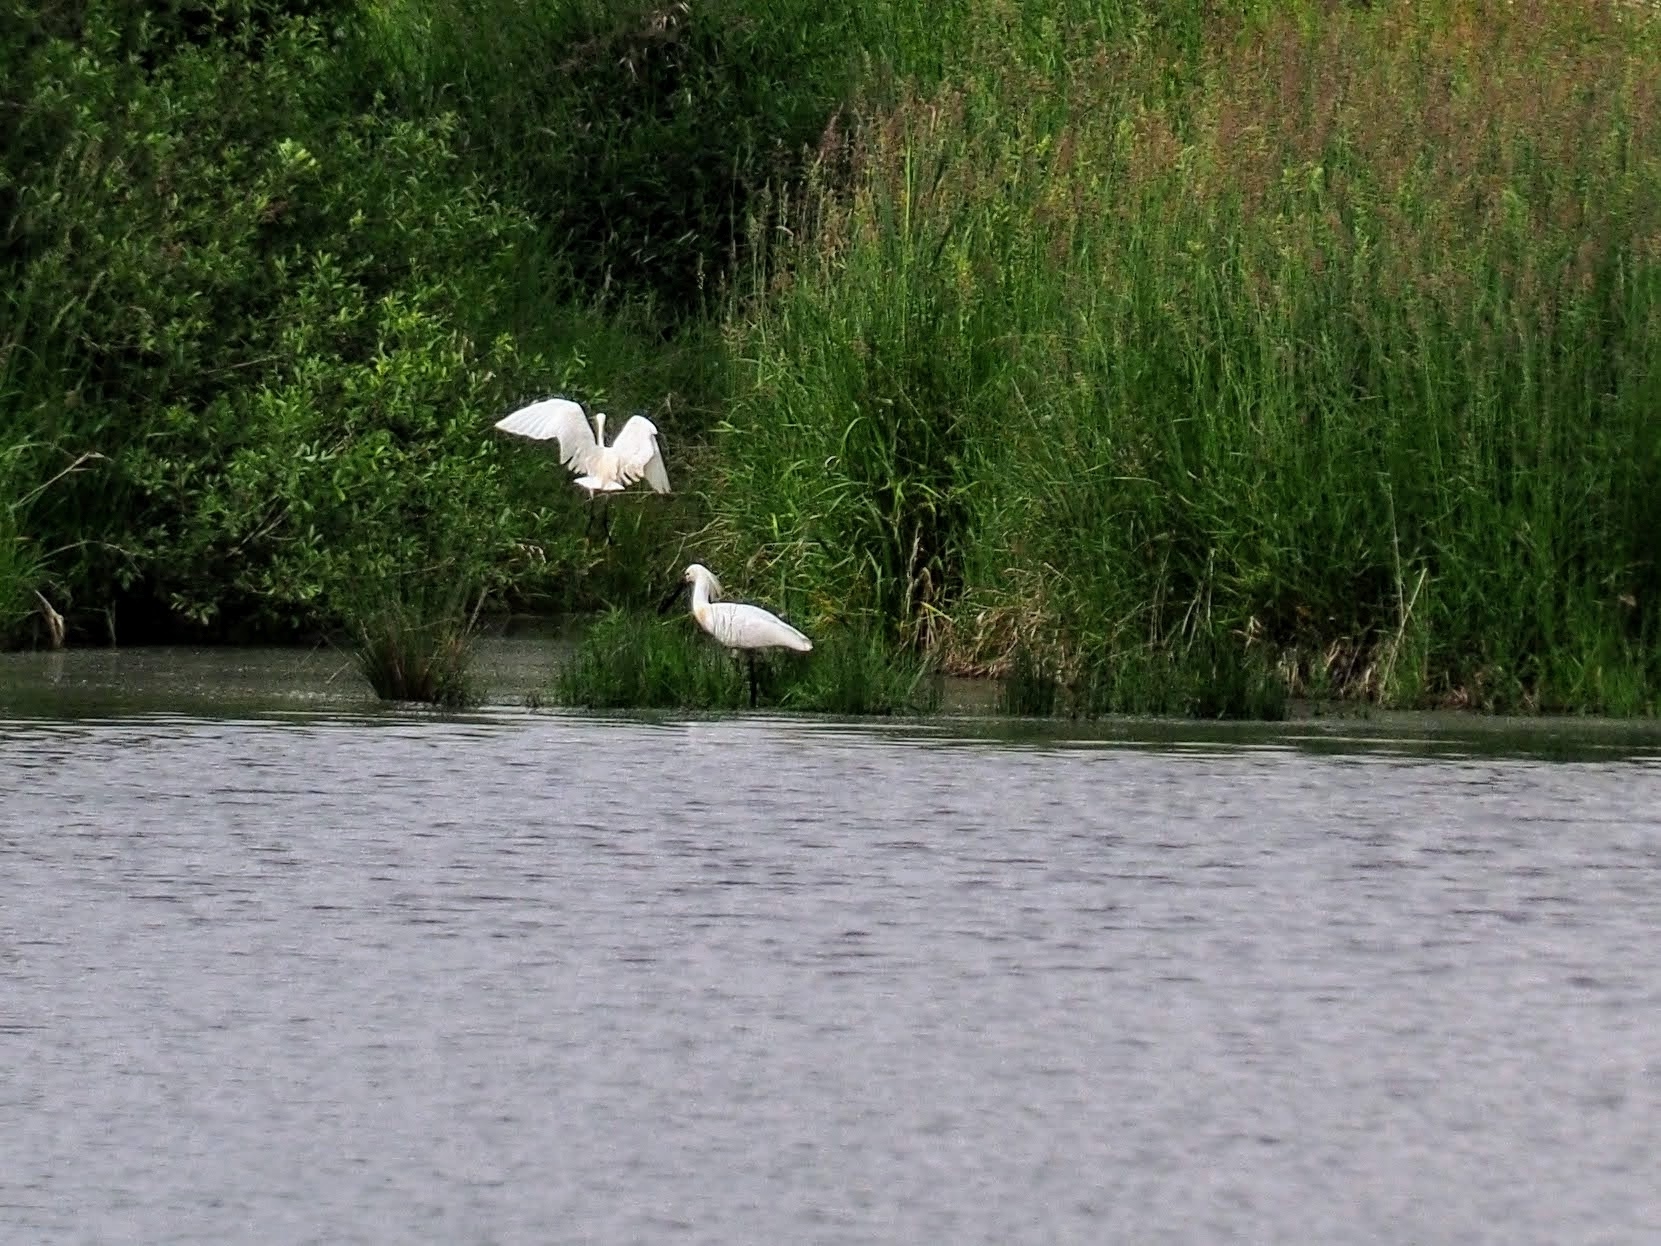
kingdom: Animalia
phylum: Chordata
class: Aves
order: Pelecaniformes
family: Threskiornithidae
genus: Platalea
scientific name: Platalea leucorodia
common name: Eurasian spoonbill
